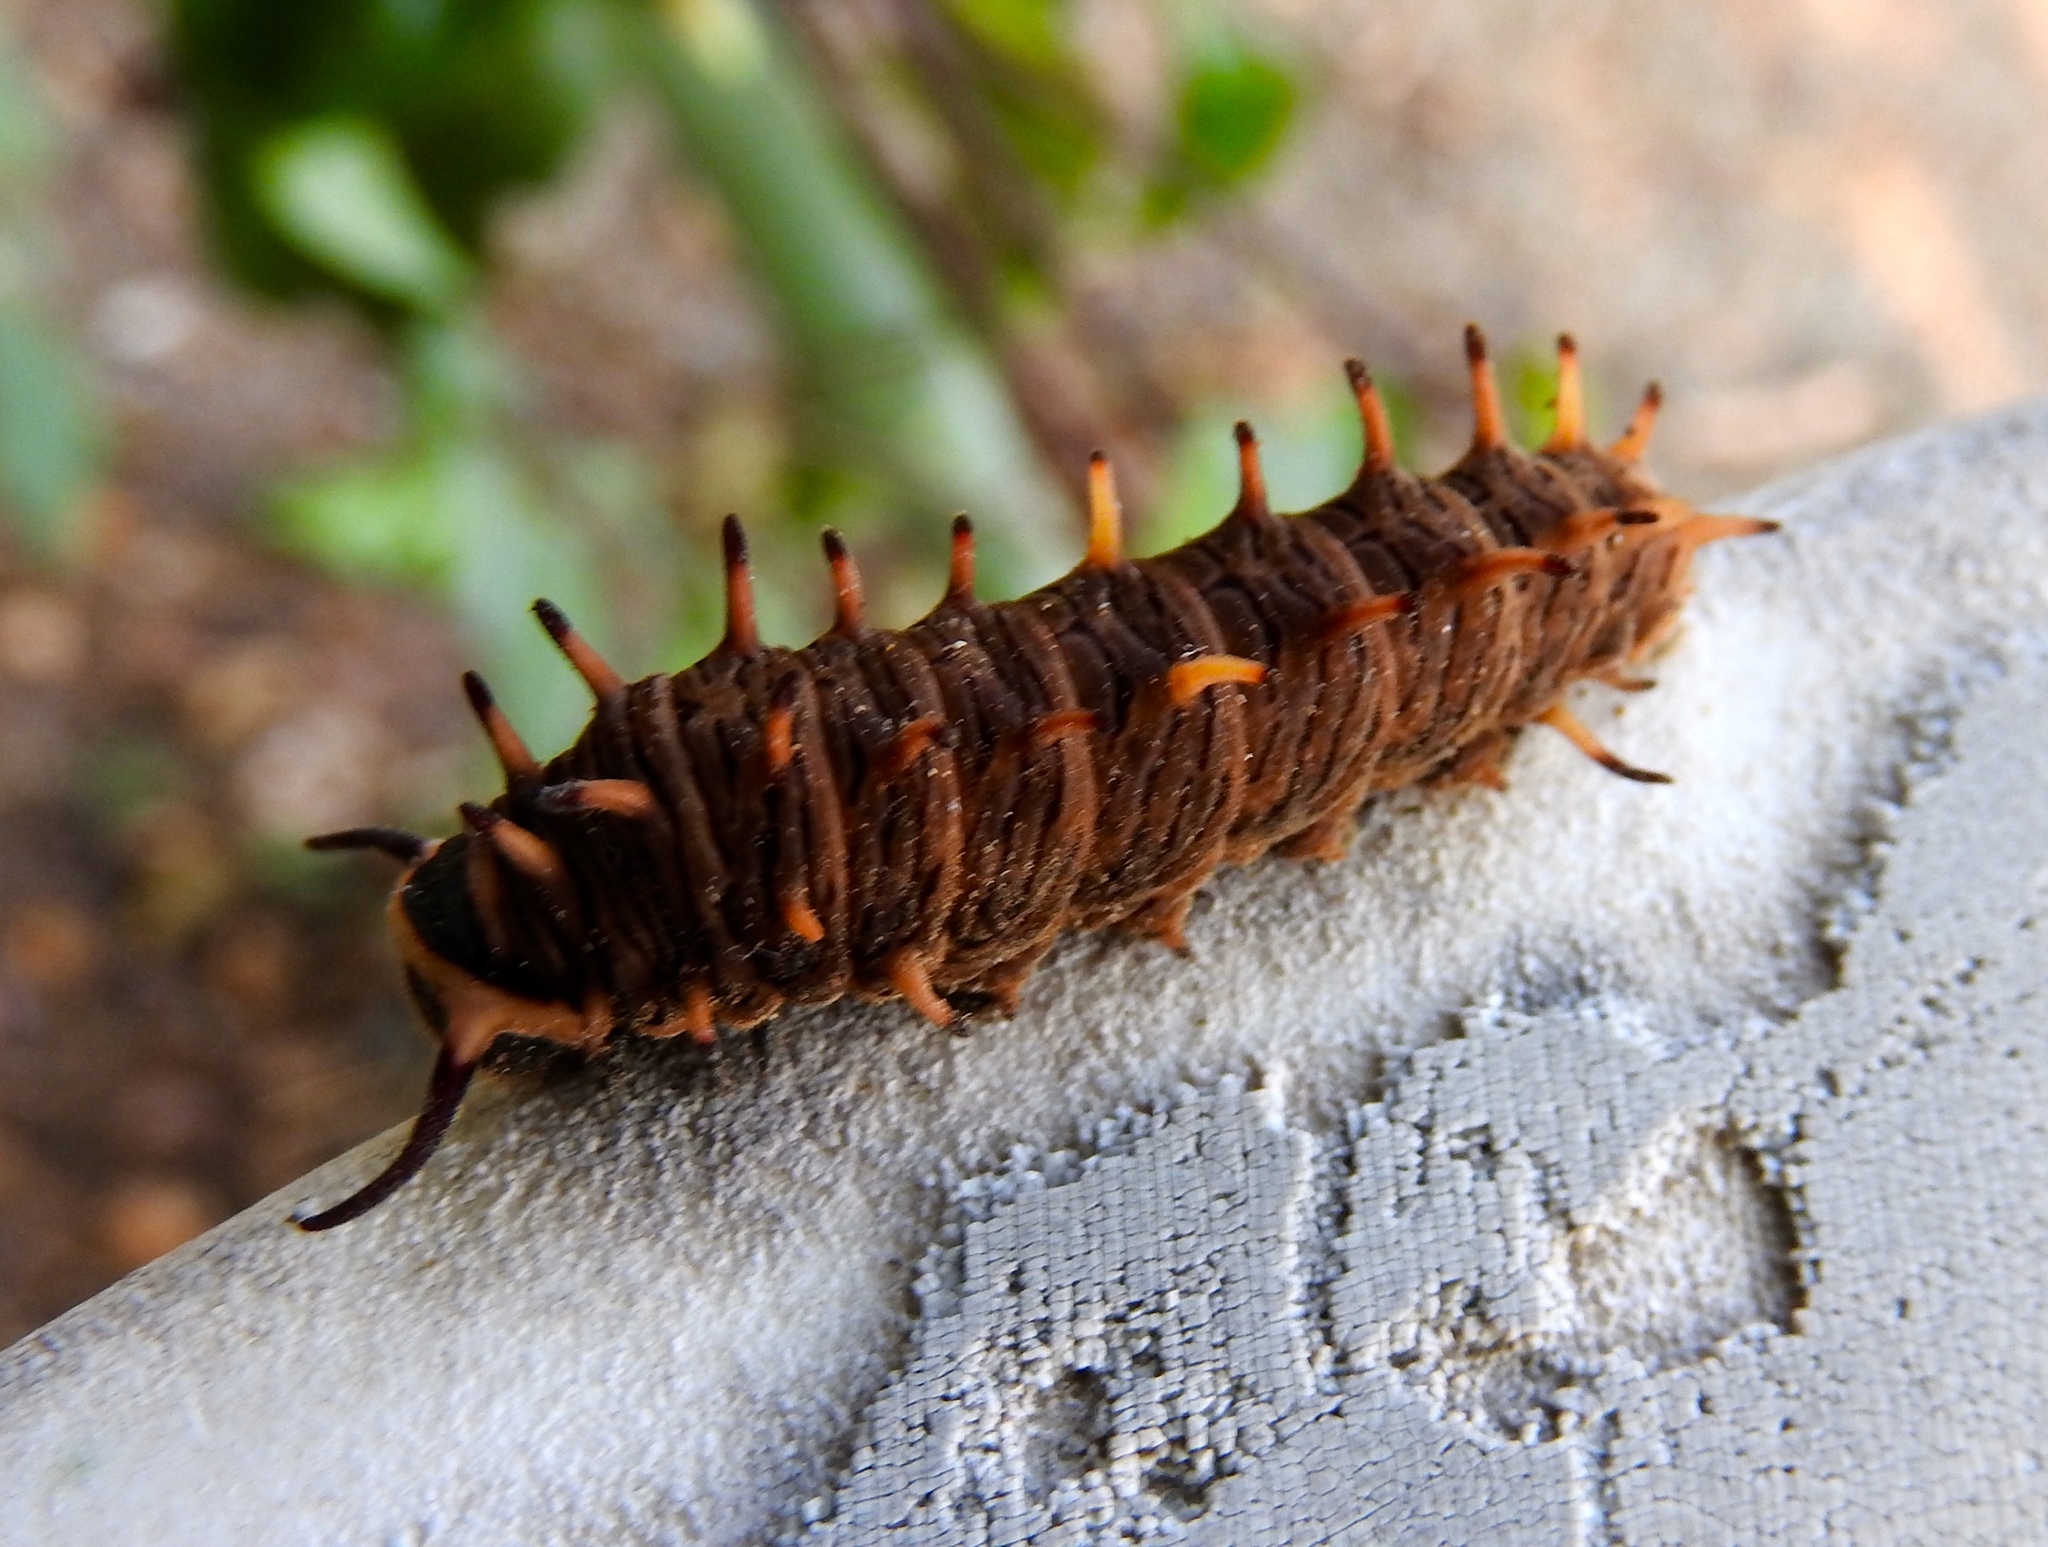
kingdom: Animalia
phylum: Arthropoda
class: Insecta
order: Lepidoptera
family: Papilionidae
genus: Battus
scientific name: Battus
